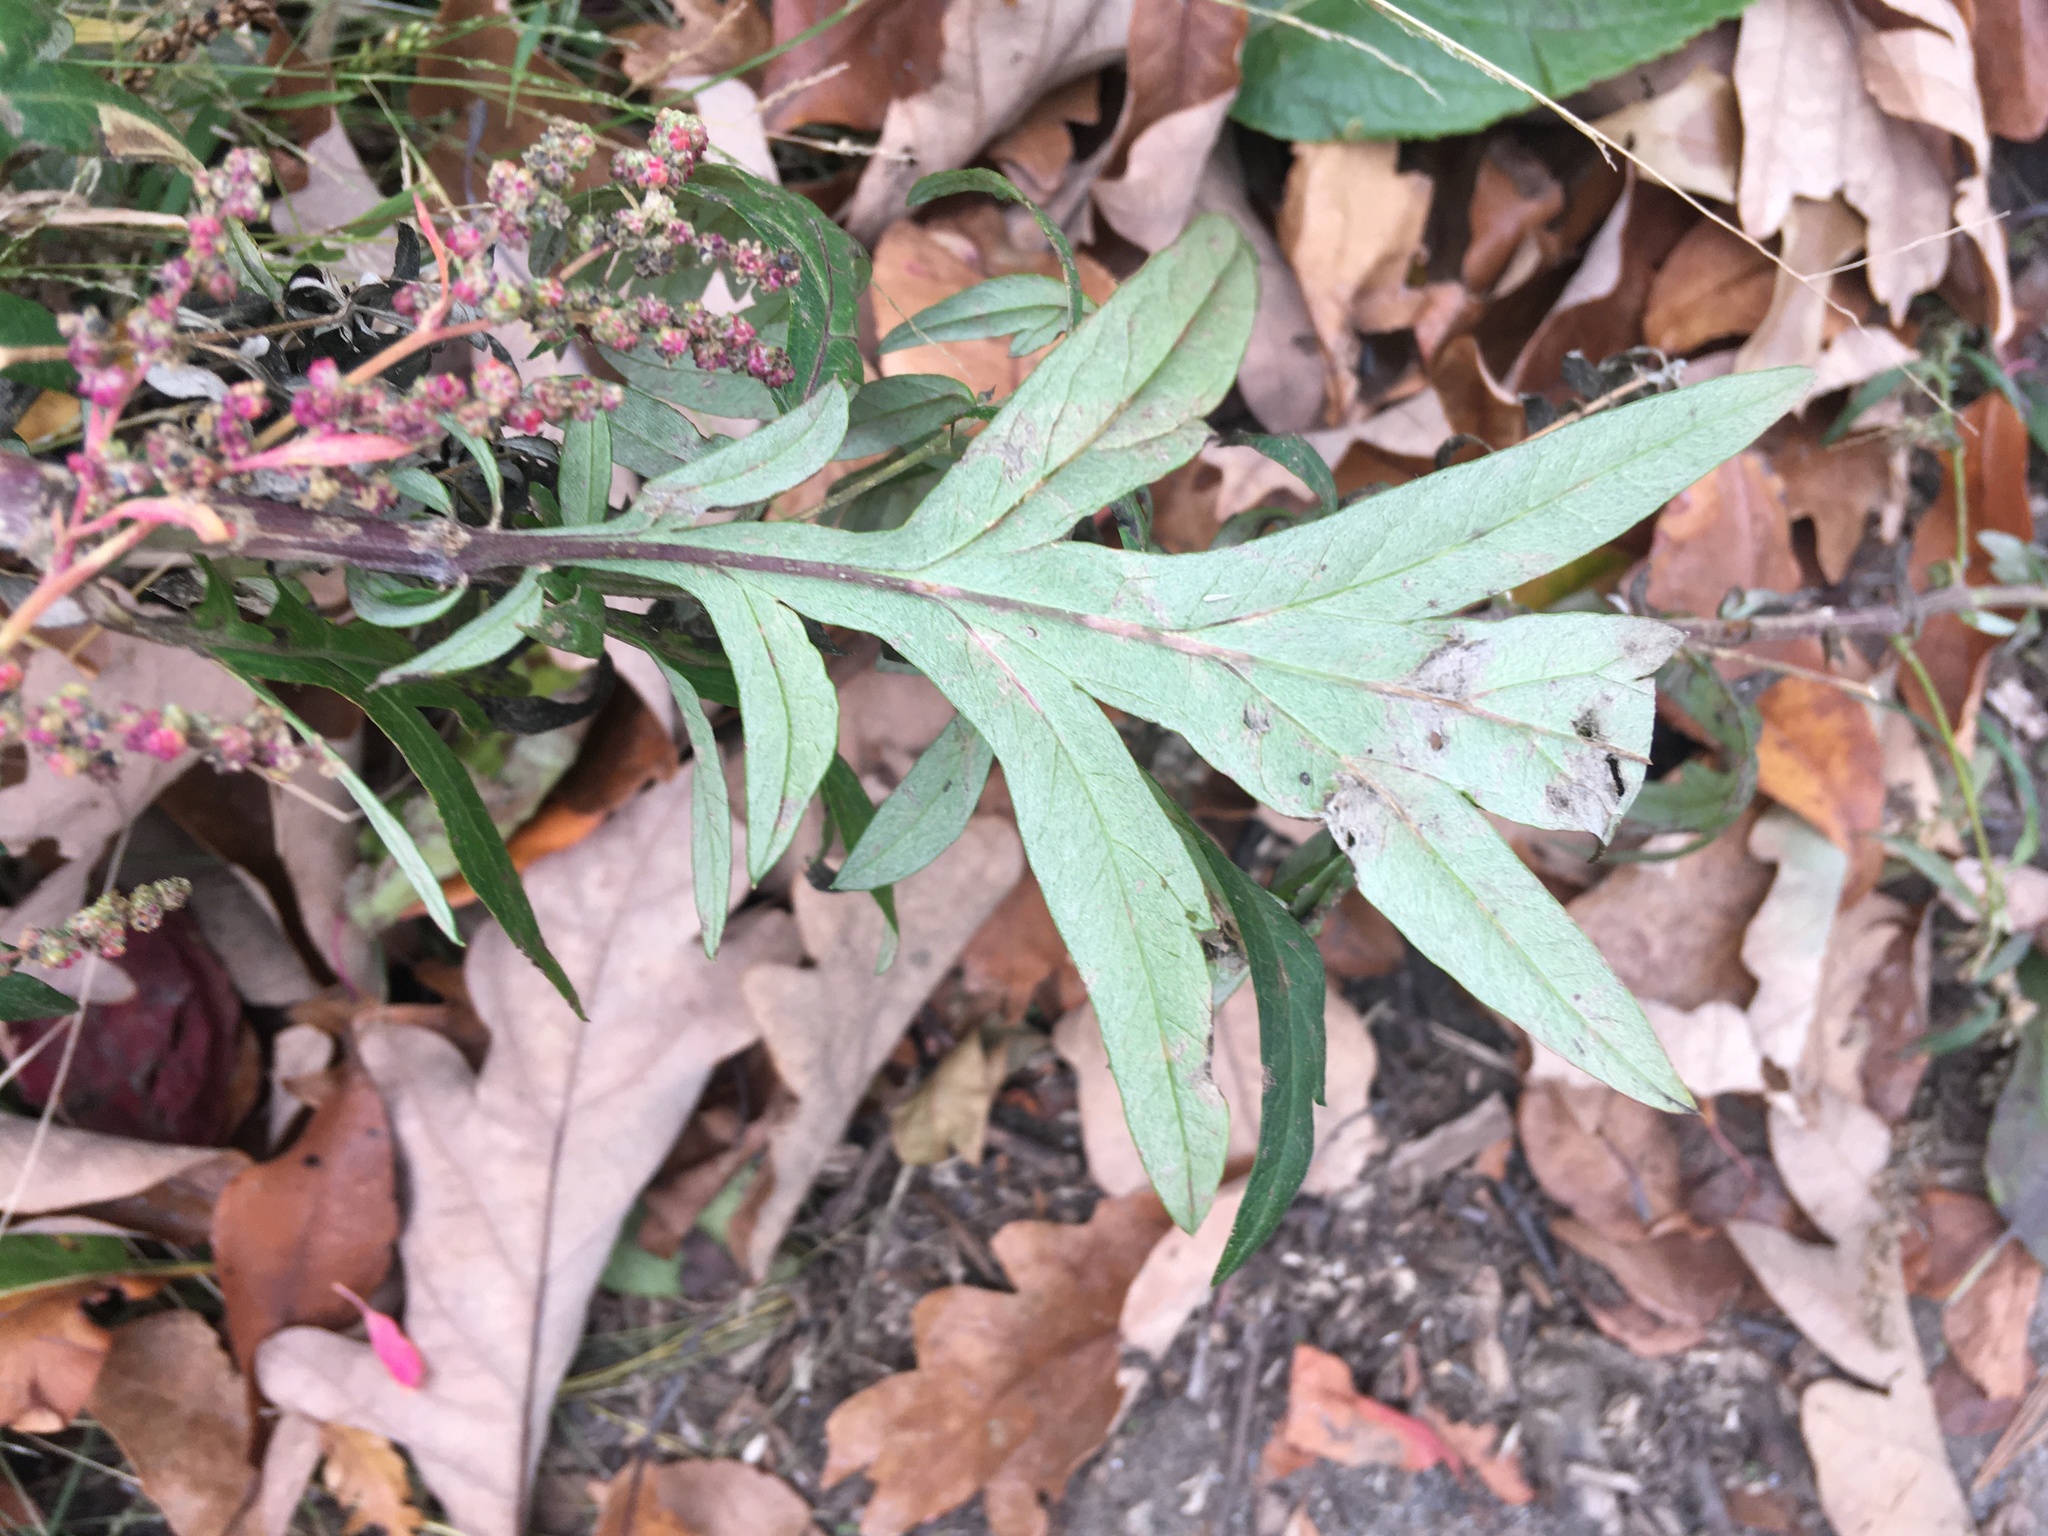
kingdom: Plantae
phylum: Tracheophyta
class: Magnoliopsida
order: Asterales
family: Asteraceae
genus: Artemisia
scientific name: Artemisia vulgaris
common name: Mugwort
